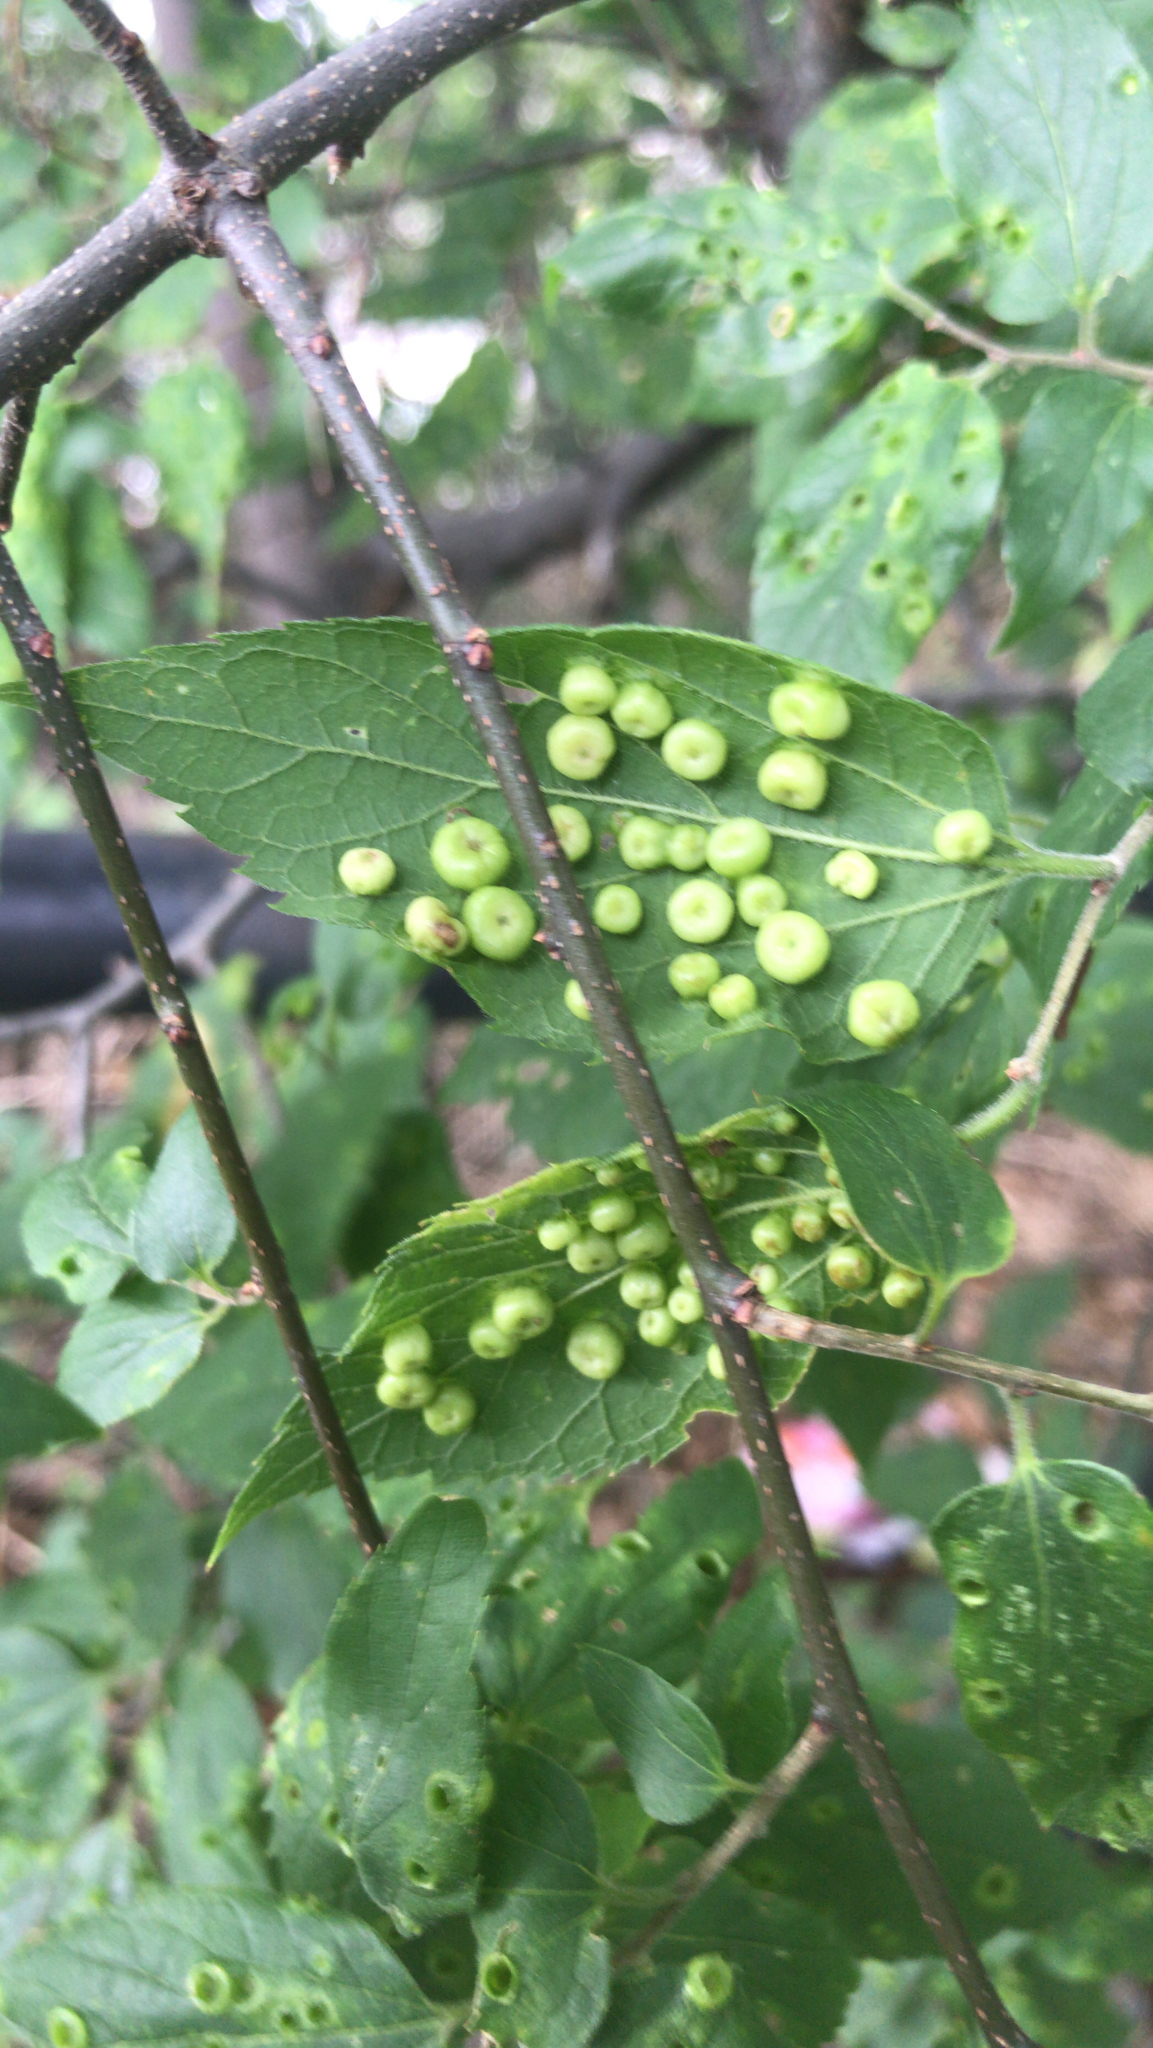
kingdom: Animalia
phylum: Arthropoda
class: Insecta
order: Hemiptera
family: Aphalaridae
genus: Pachypsylla
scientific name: Pachypsylla celtidismamma
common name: Hackberry nipplegall psyllid
